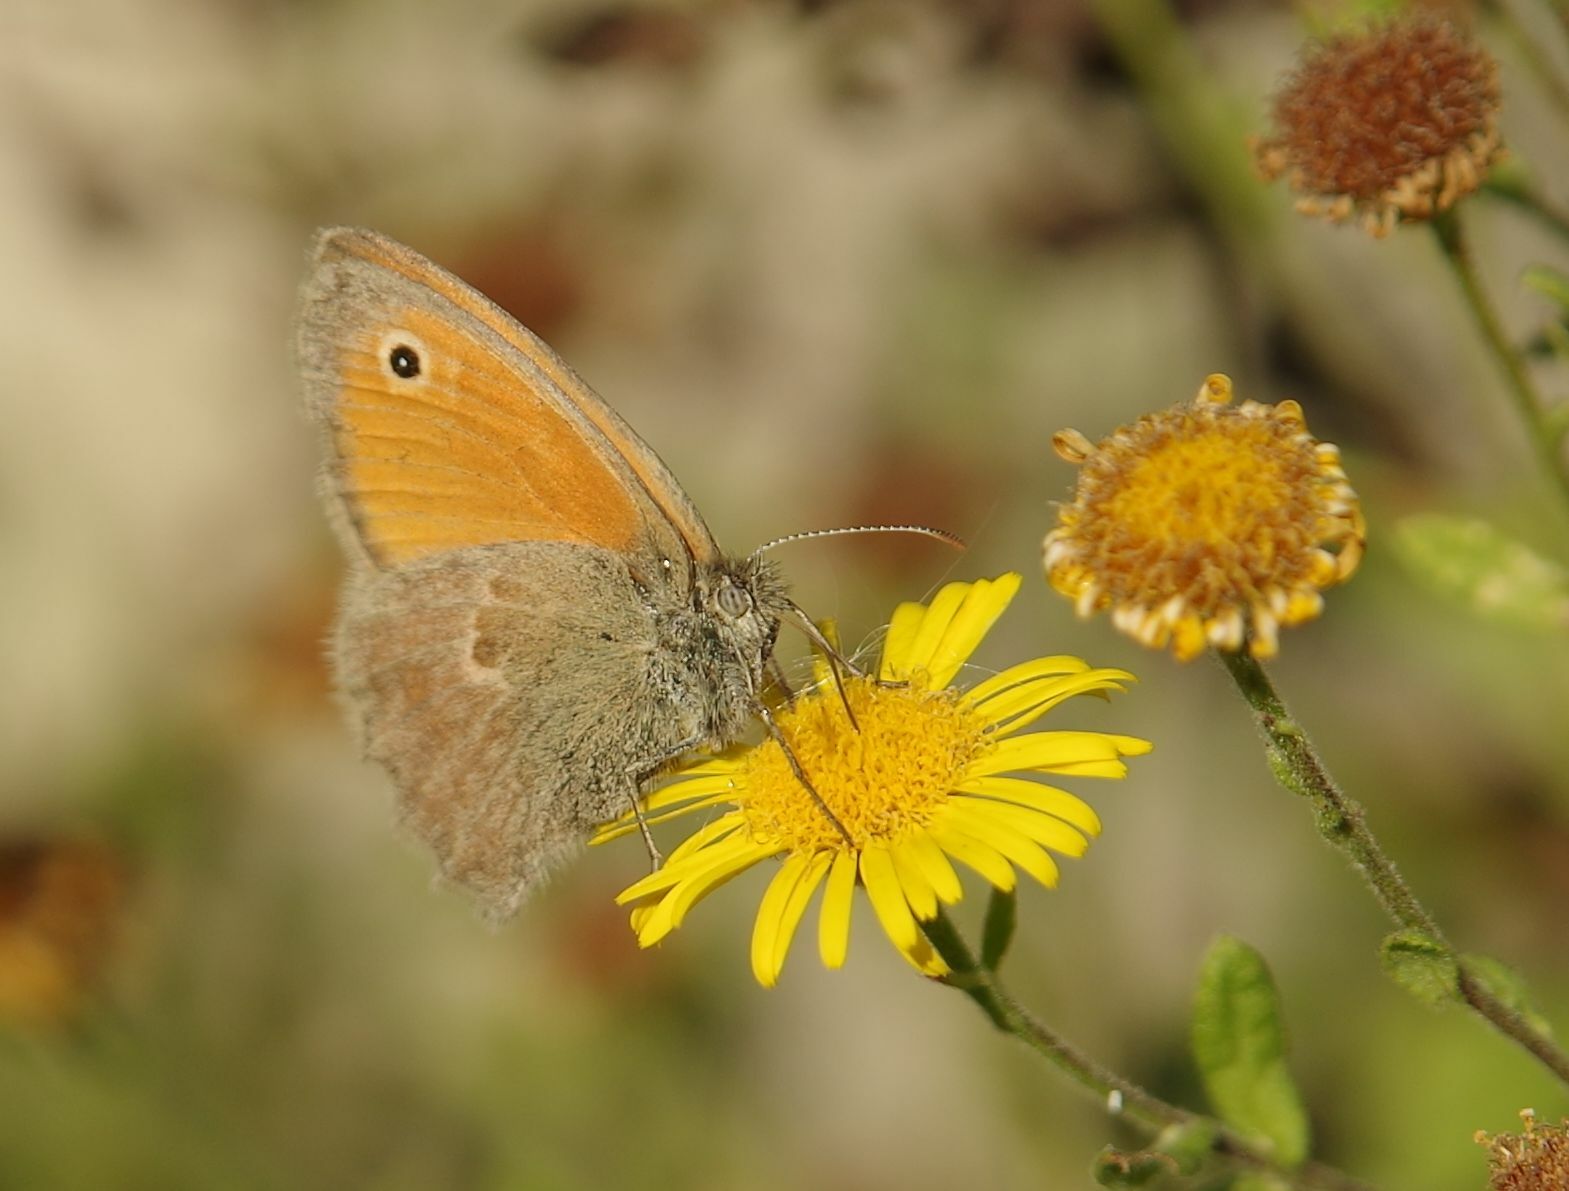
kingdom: Animalia
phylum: Arthropoda
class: Insecta
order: Lepidoptera
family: Nymphalidae
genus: Coenonympha
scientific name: Coenonympha pamphilus
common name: Small heath
